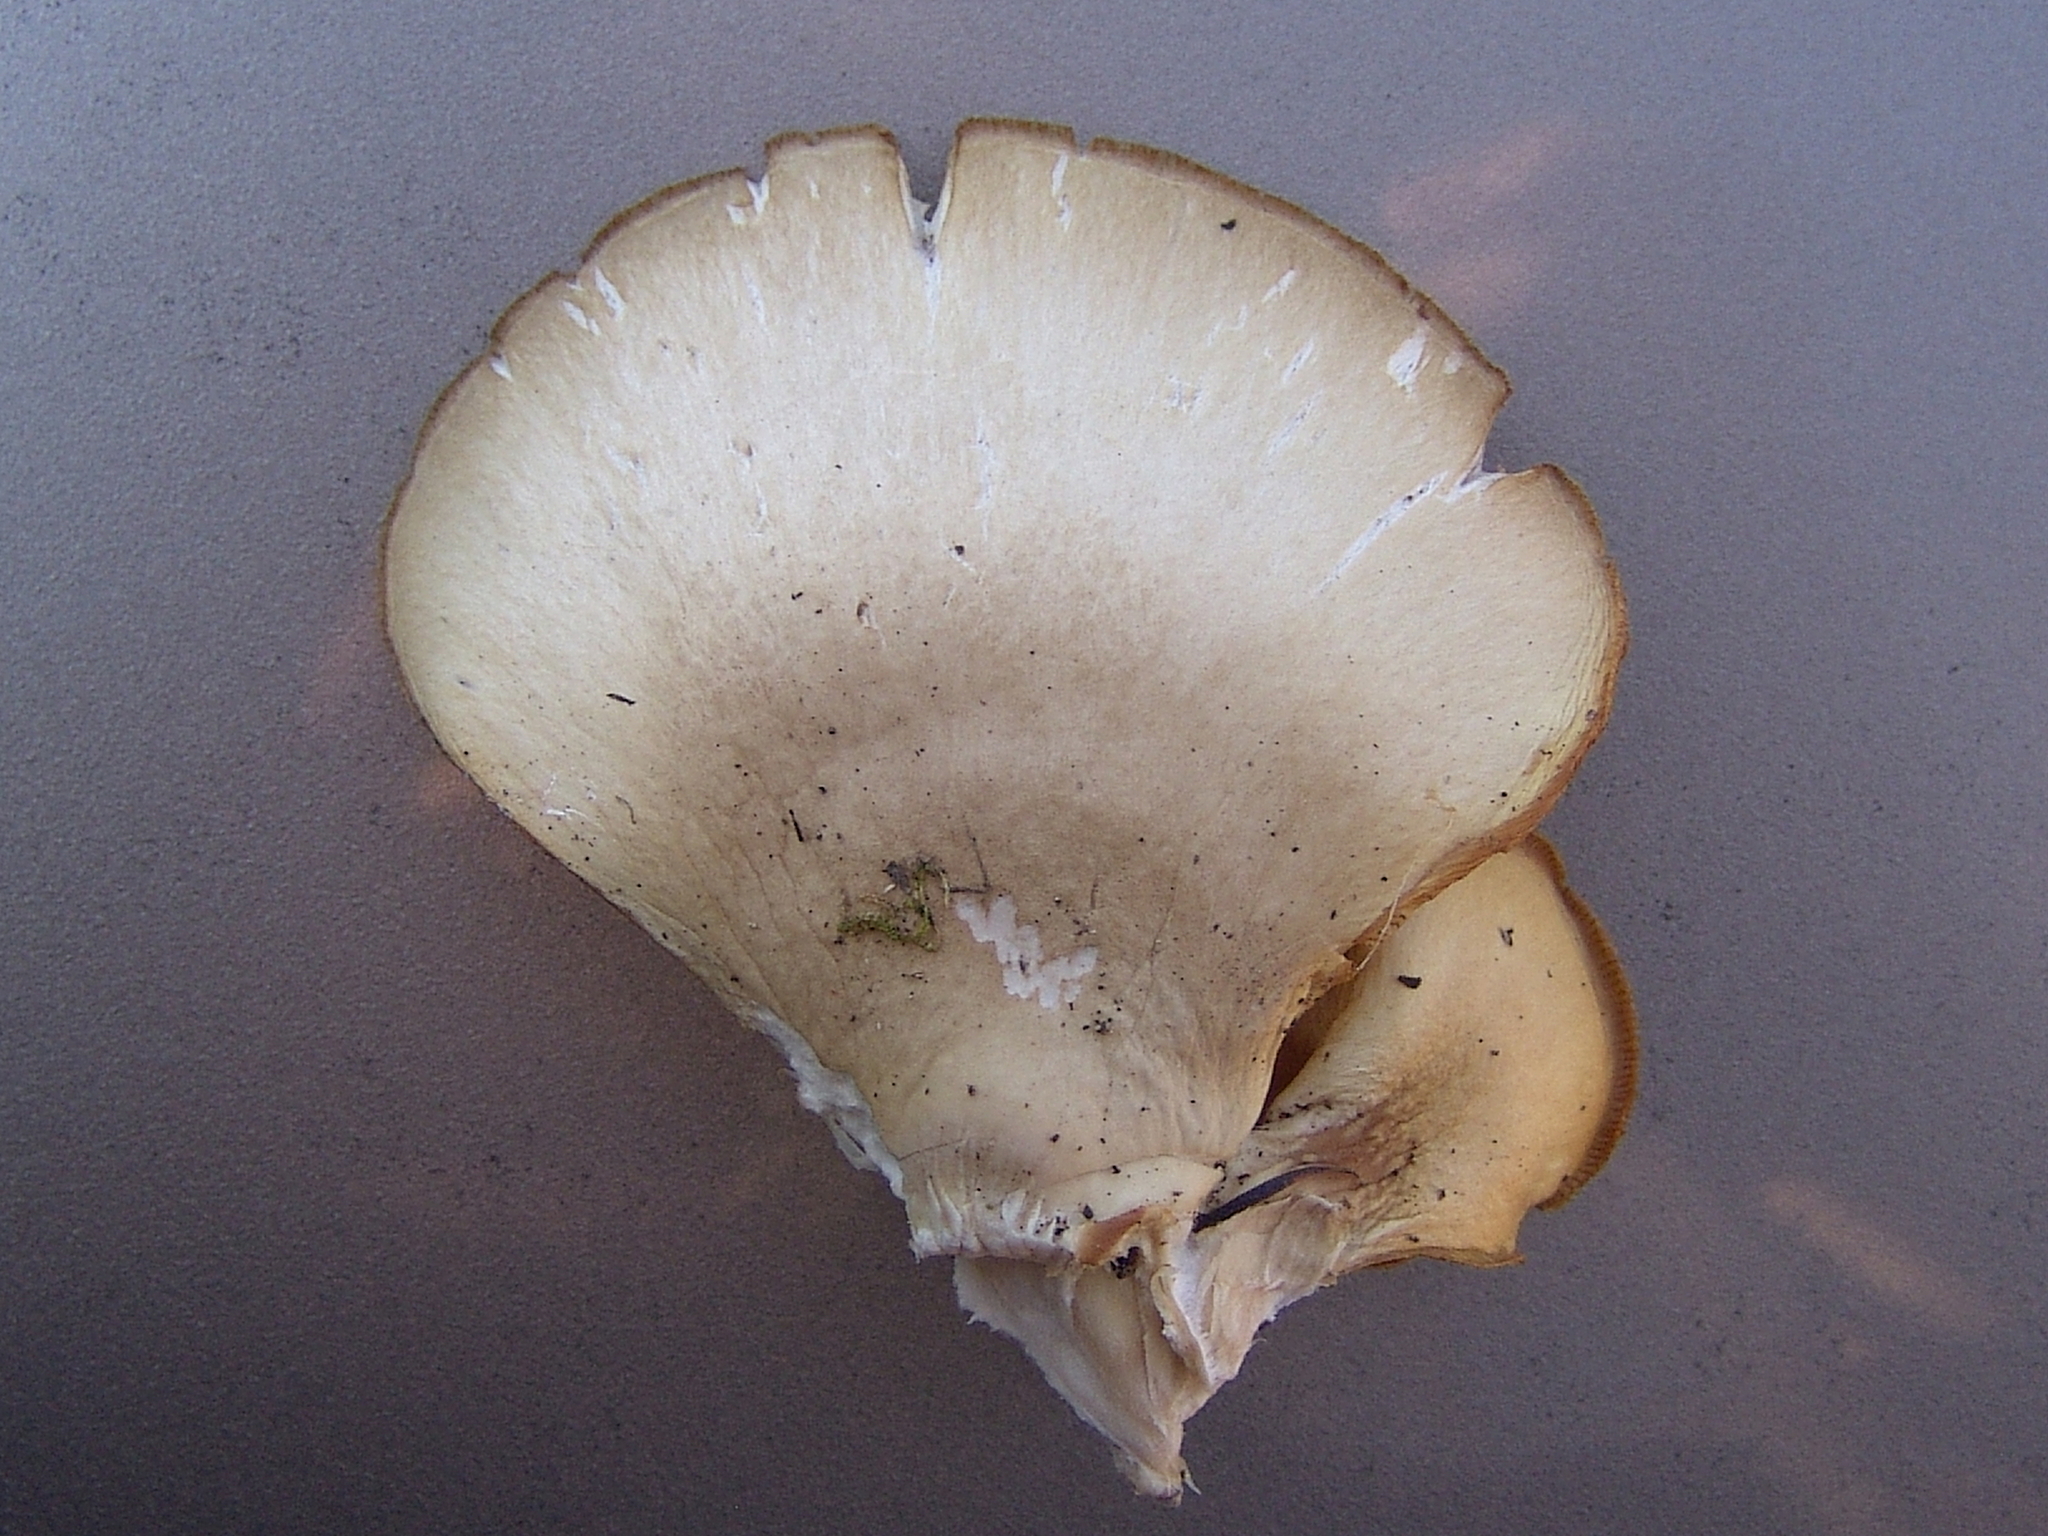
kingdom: Fungi
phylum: Basidiomycota
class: Agaricomycetes
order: Agaricales
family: Pleurotaceae
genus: Pleurotus
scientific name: Pleurotus ostreatus
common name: Oyster mushroom
